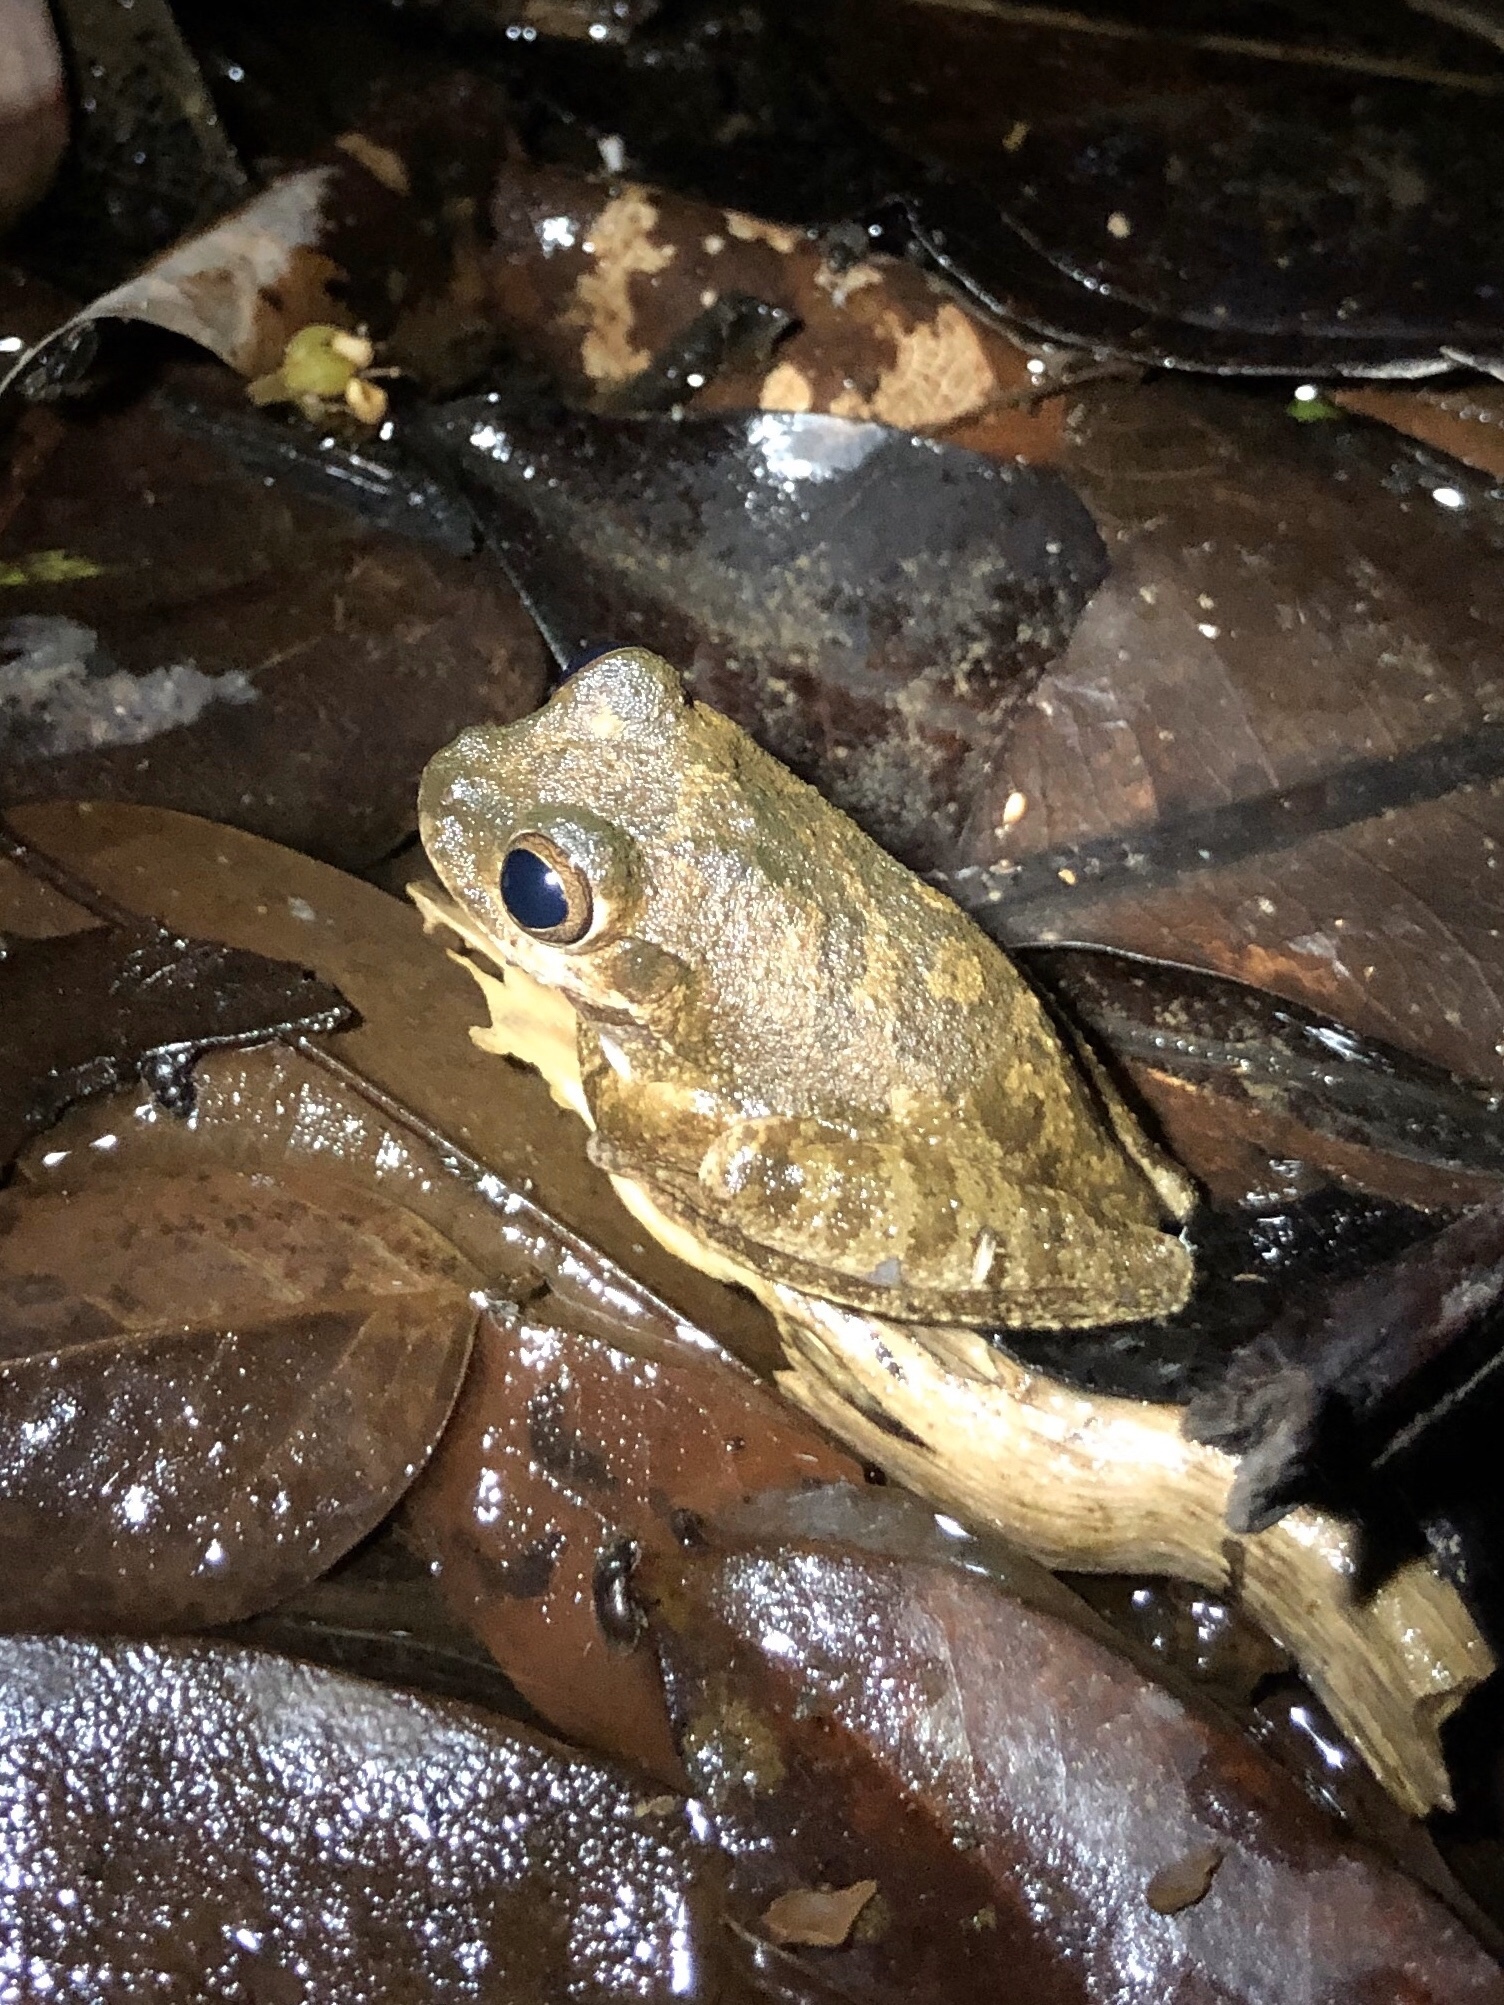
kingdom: Animalia
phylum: Chordata
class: Amphibia
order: Anura
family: Hylidae
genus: Smilisca
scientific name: Smilisca sila
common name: Panama cross-banded treefrog
